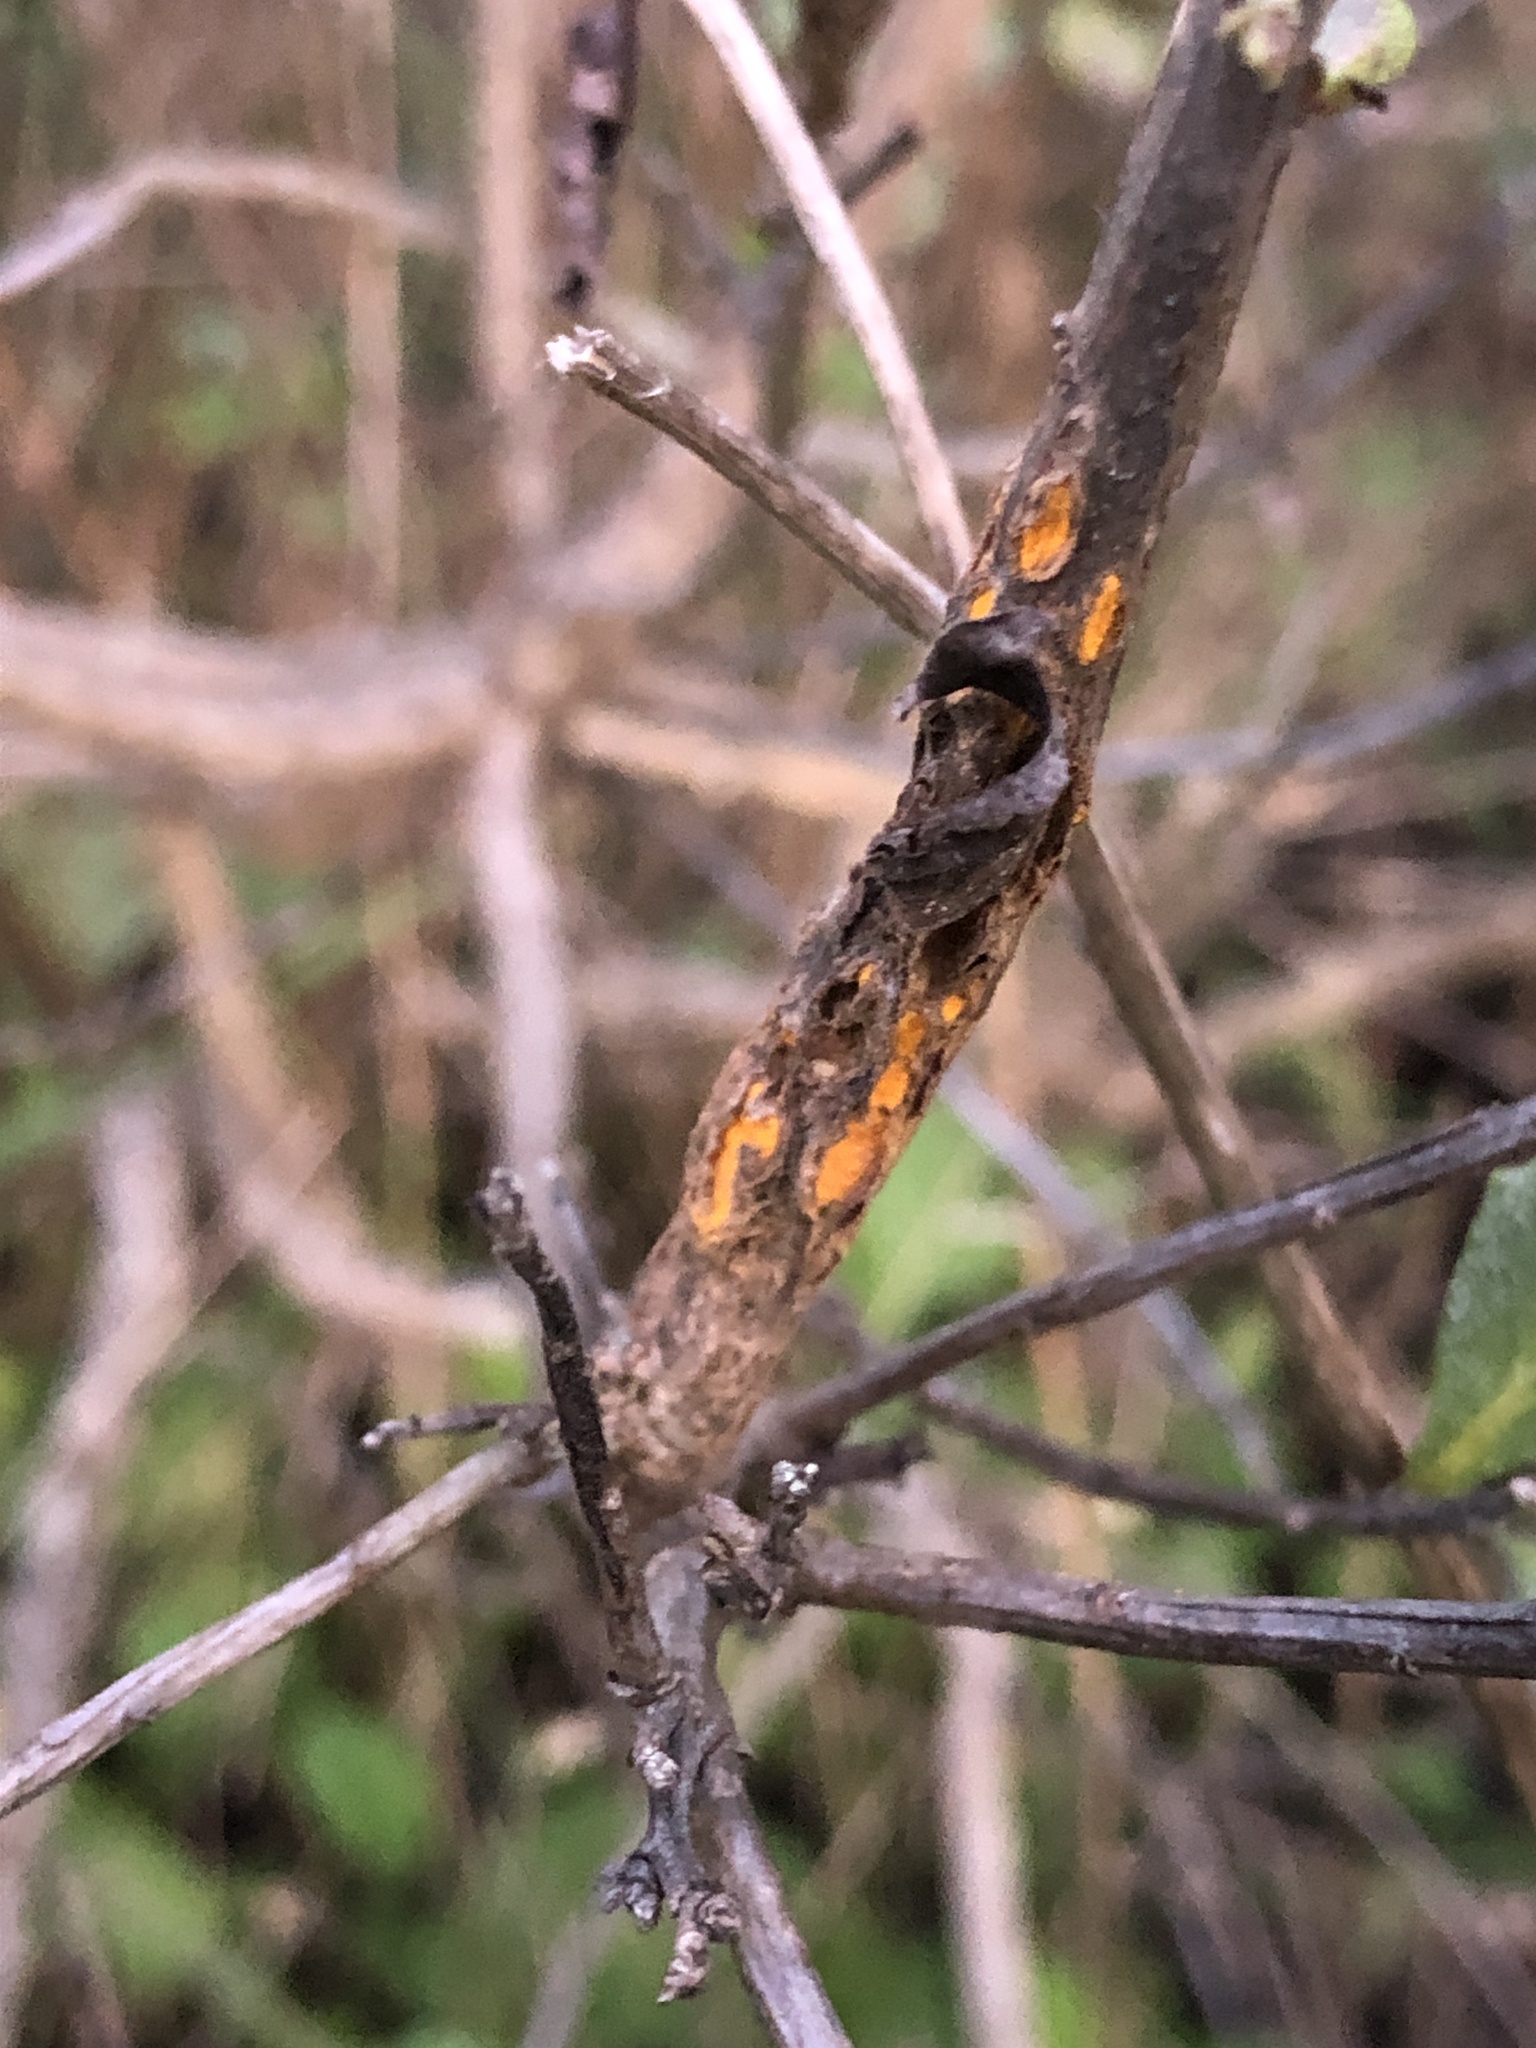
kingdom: Fungi
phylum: Basidiomycota
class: Pucciniomycetes
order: Pucciniales
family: Pucciniaceae
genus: Eriosporangium
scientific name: Eriosporangium evadens
